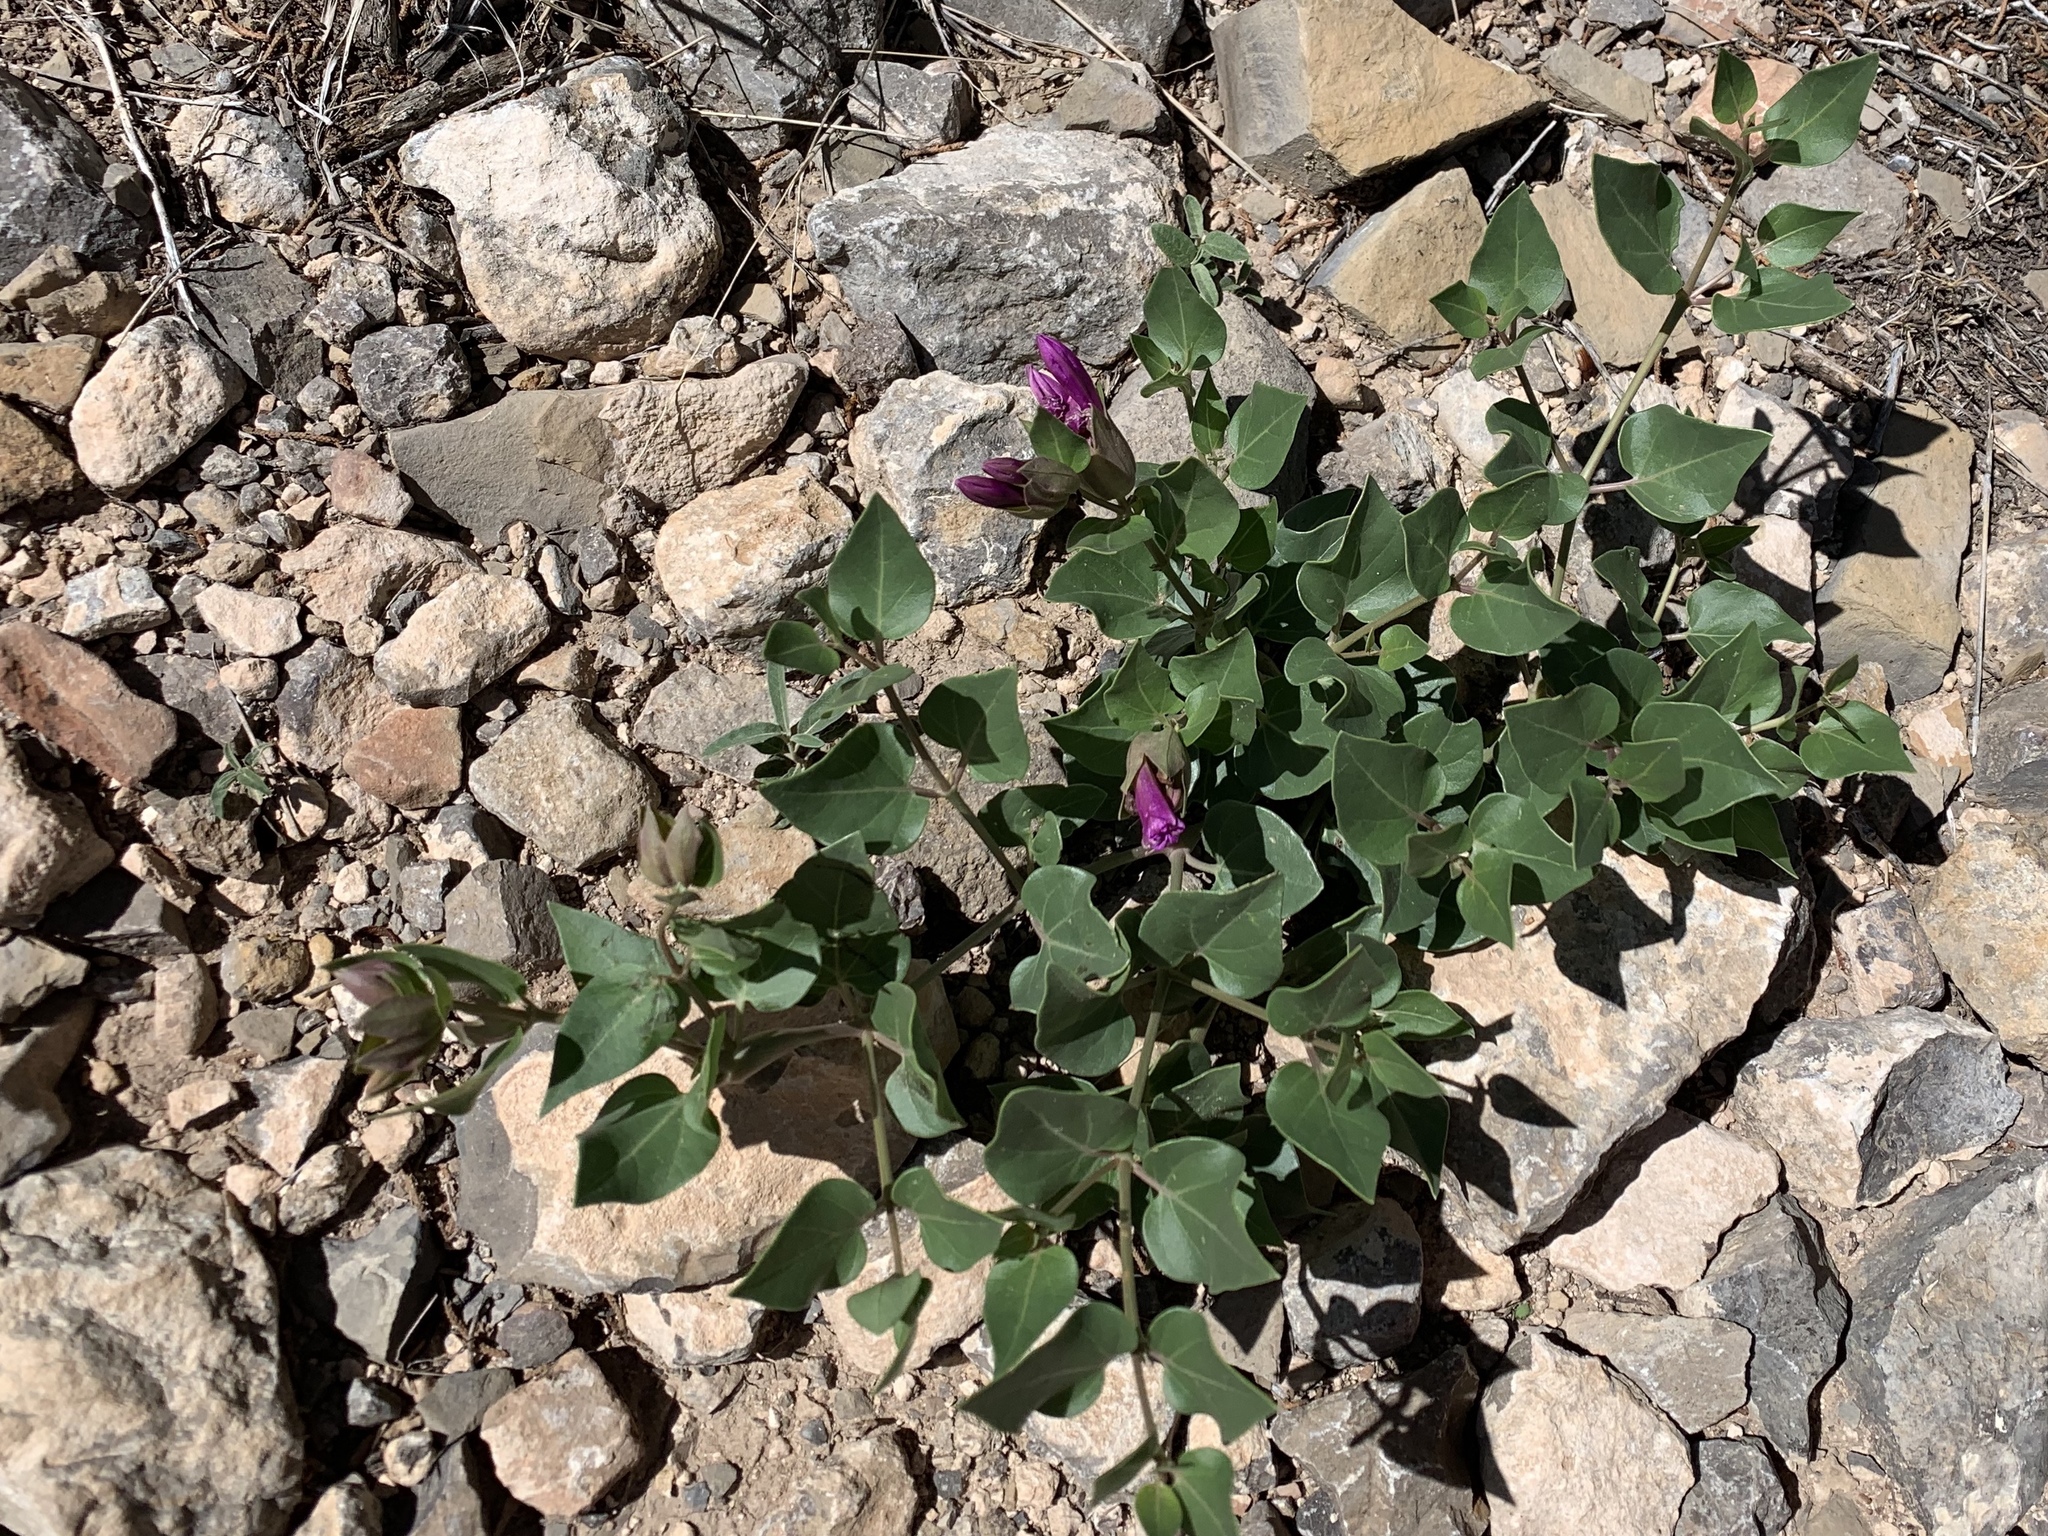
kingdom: Plantae
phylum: Tracheophyta
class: Magnoliopsida
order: Caryophyllales
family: Nyctaginaceae
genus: Mirabilis
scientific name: Mirabilis multiflora
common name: Froebel's four-o'clock
